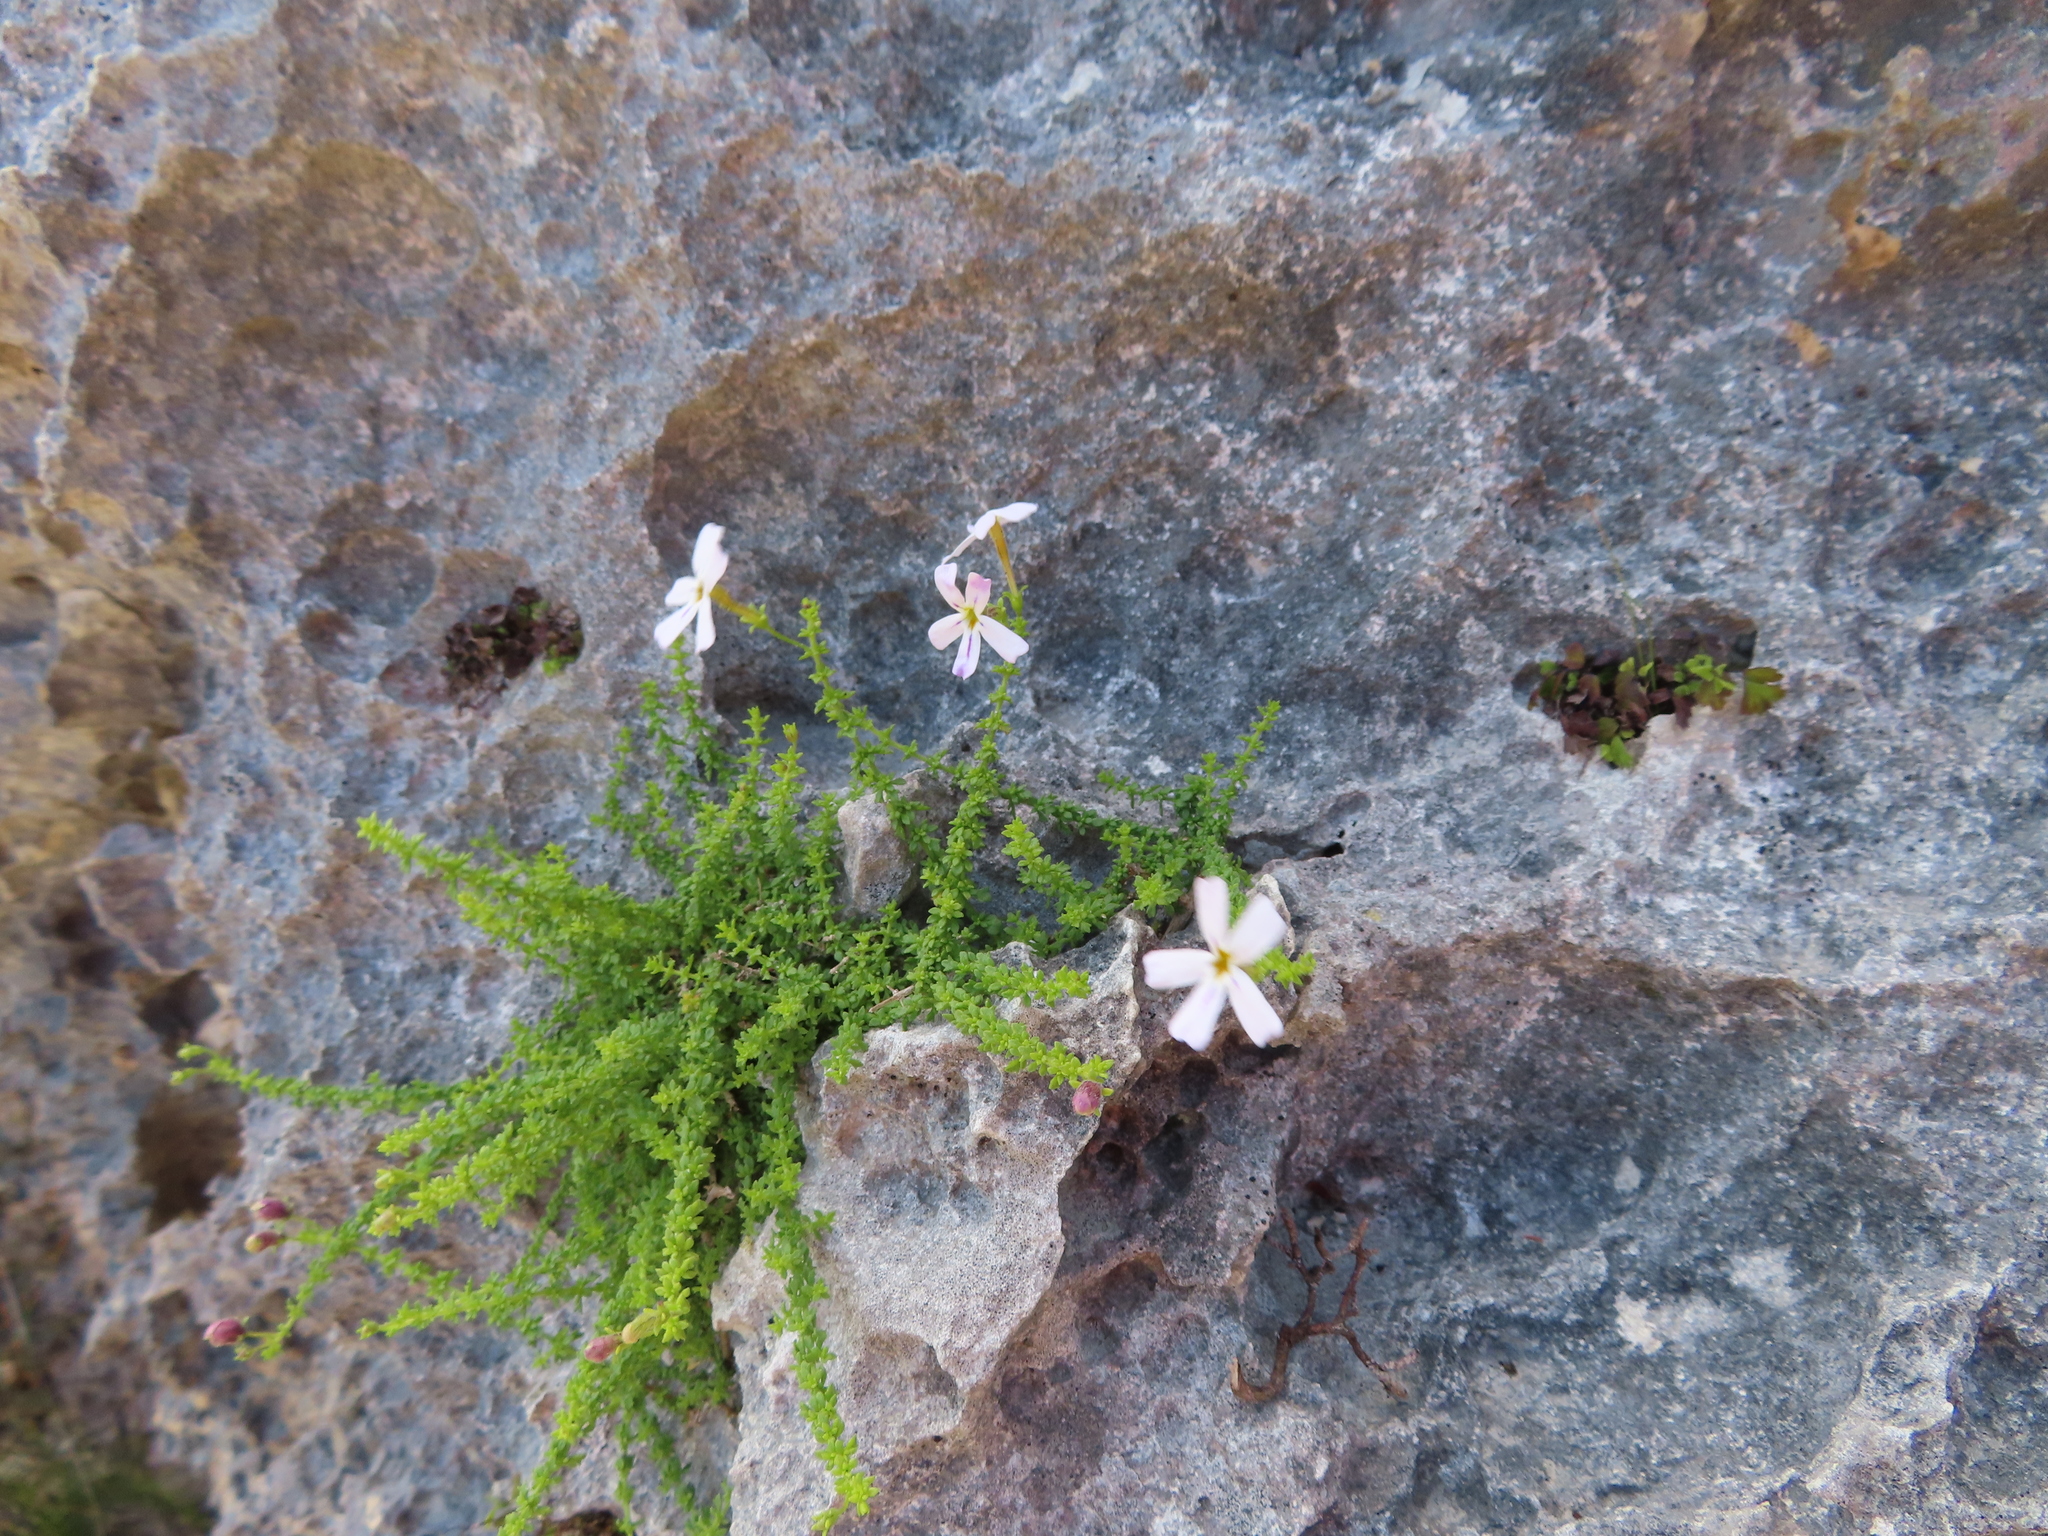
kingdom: Plantae
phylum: Tracheophyta
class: Magnoliopsida
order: Lamiales
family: Scrophulariaceae
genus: Jamesbrittenia
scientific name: Jamesbrittenia calciphila
